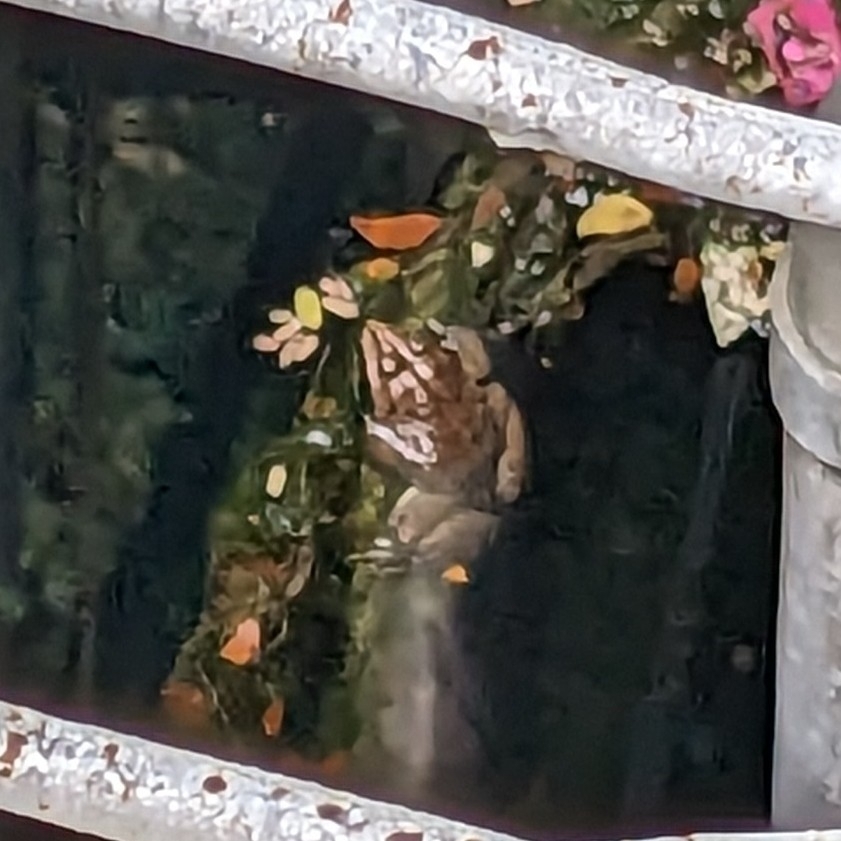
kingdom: Animalia
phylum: Chordata
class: Amphibia
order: Anura
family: Dicroglossidae
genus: Hoplobatrachus
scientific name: Hoplobatrachus tigerinus
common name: Indian bullfrog
